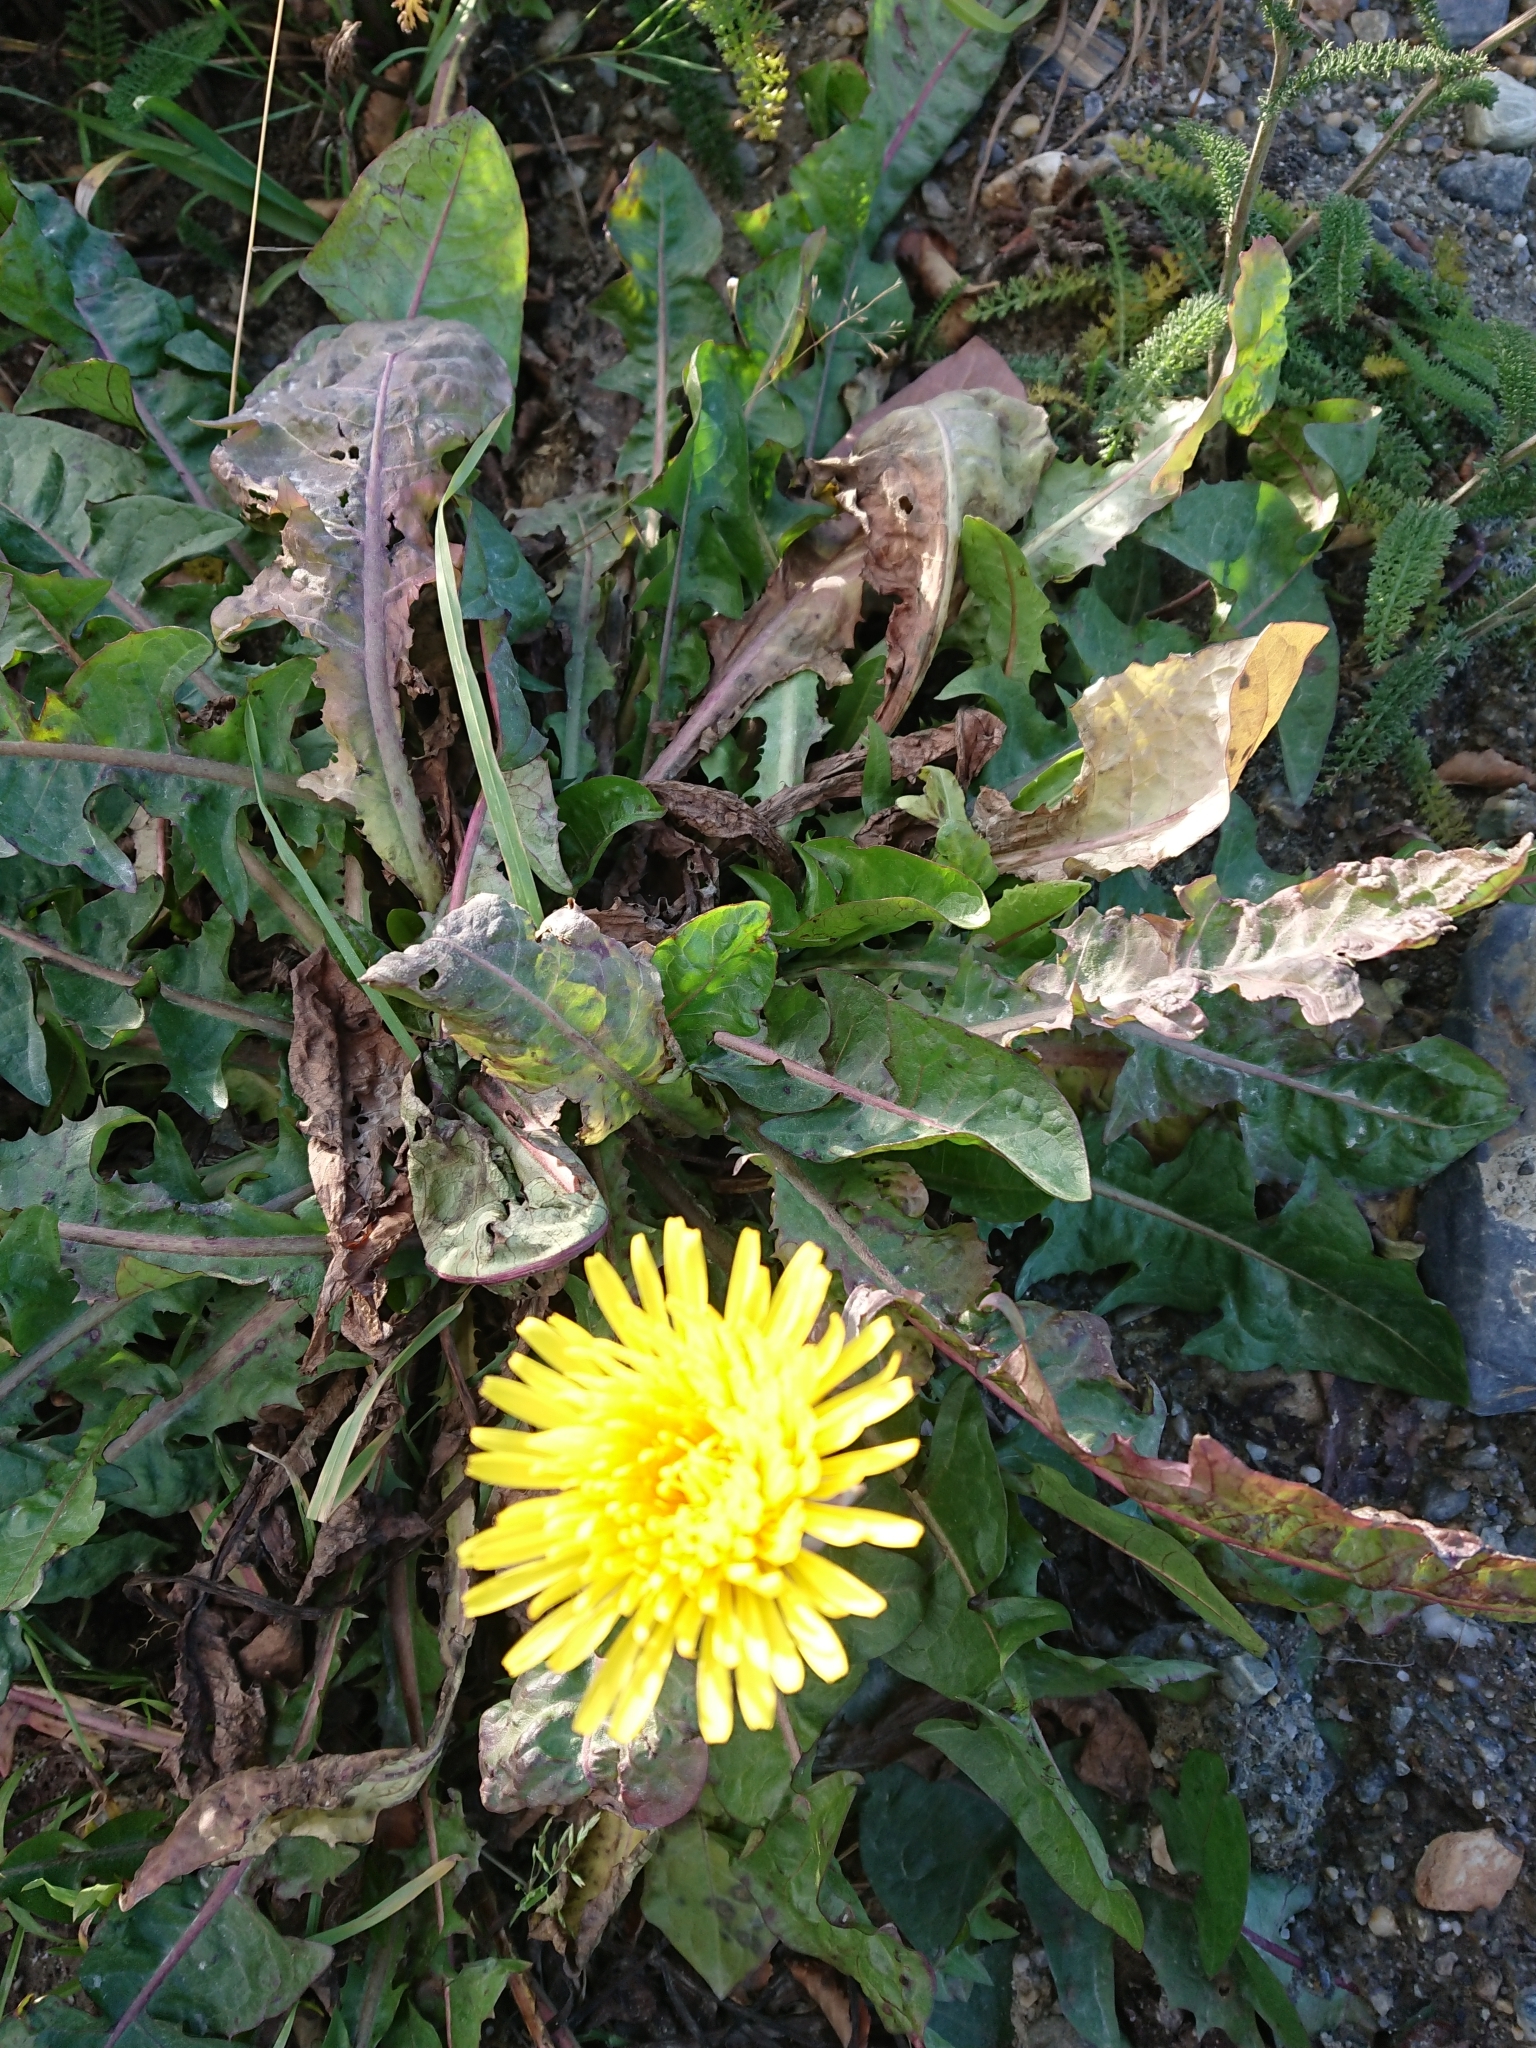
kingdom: Plantae
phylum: Tracheophyta
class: Magnoliopsida
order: Asterales
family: Asteraceae
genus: Taraxacum
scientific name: Taraxacum officinale
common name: Common dandelion
